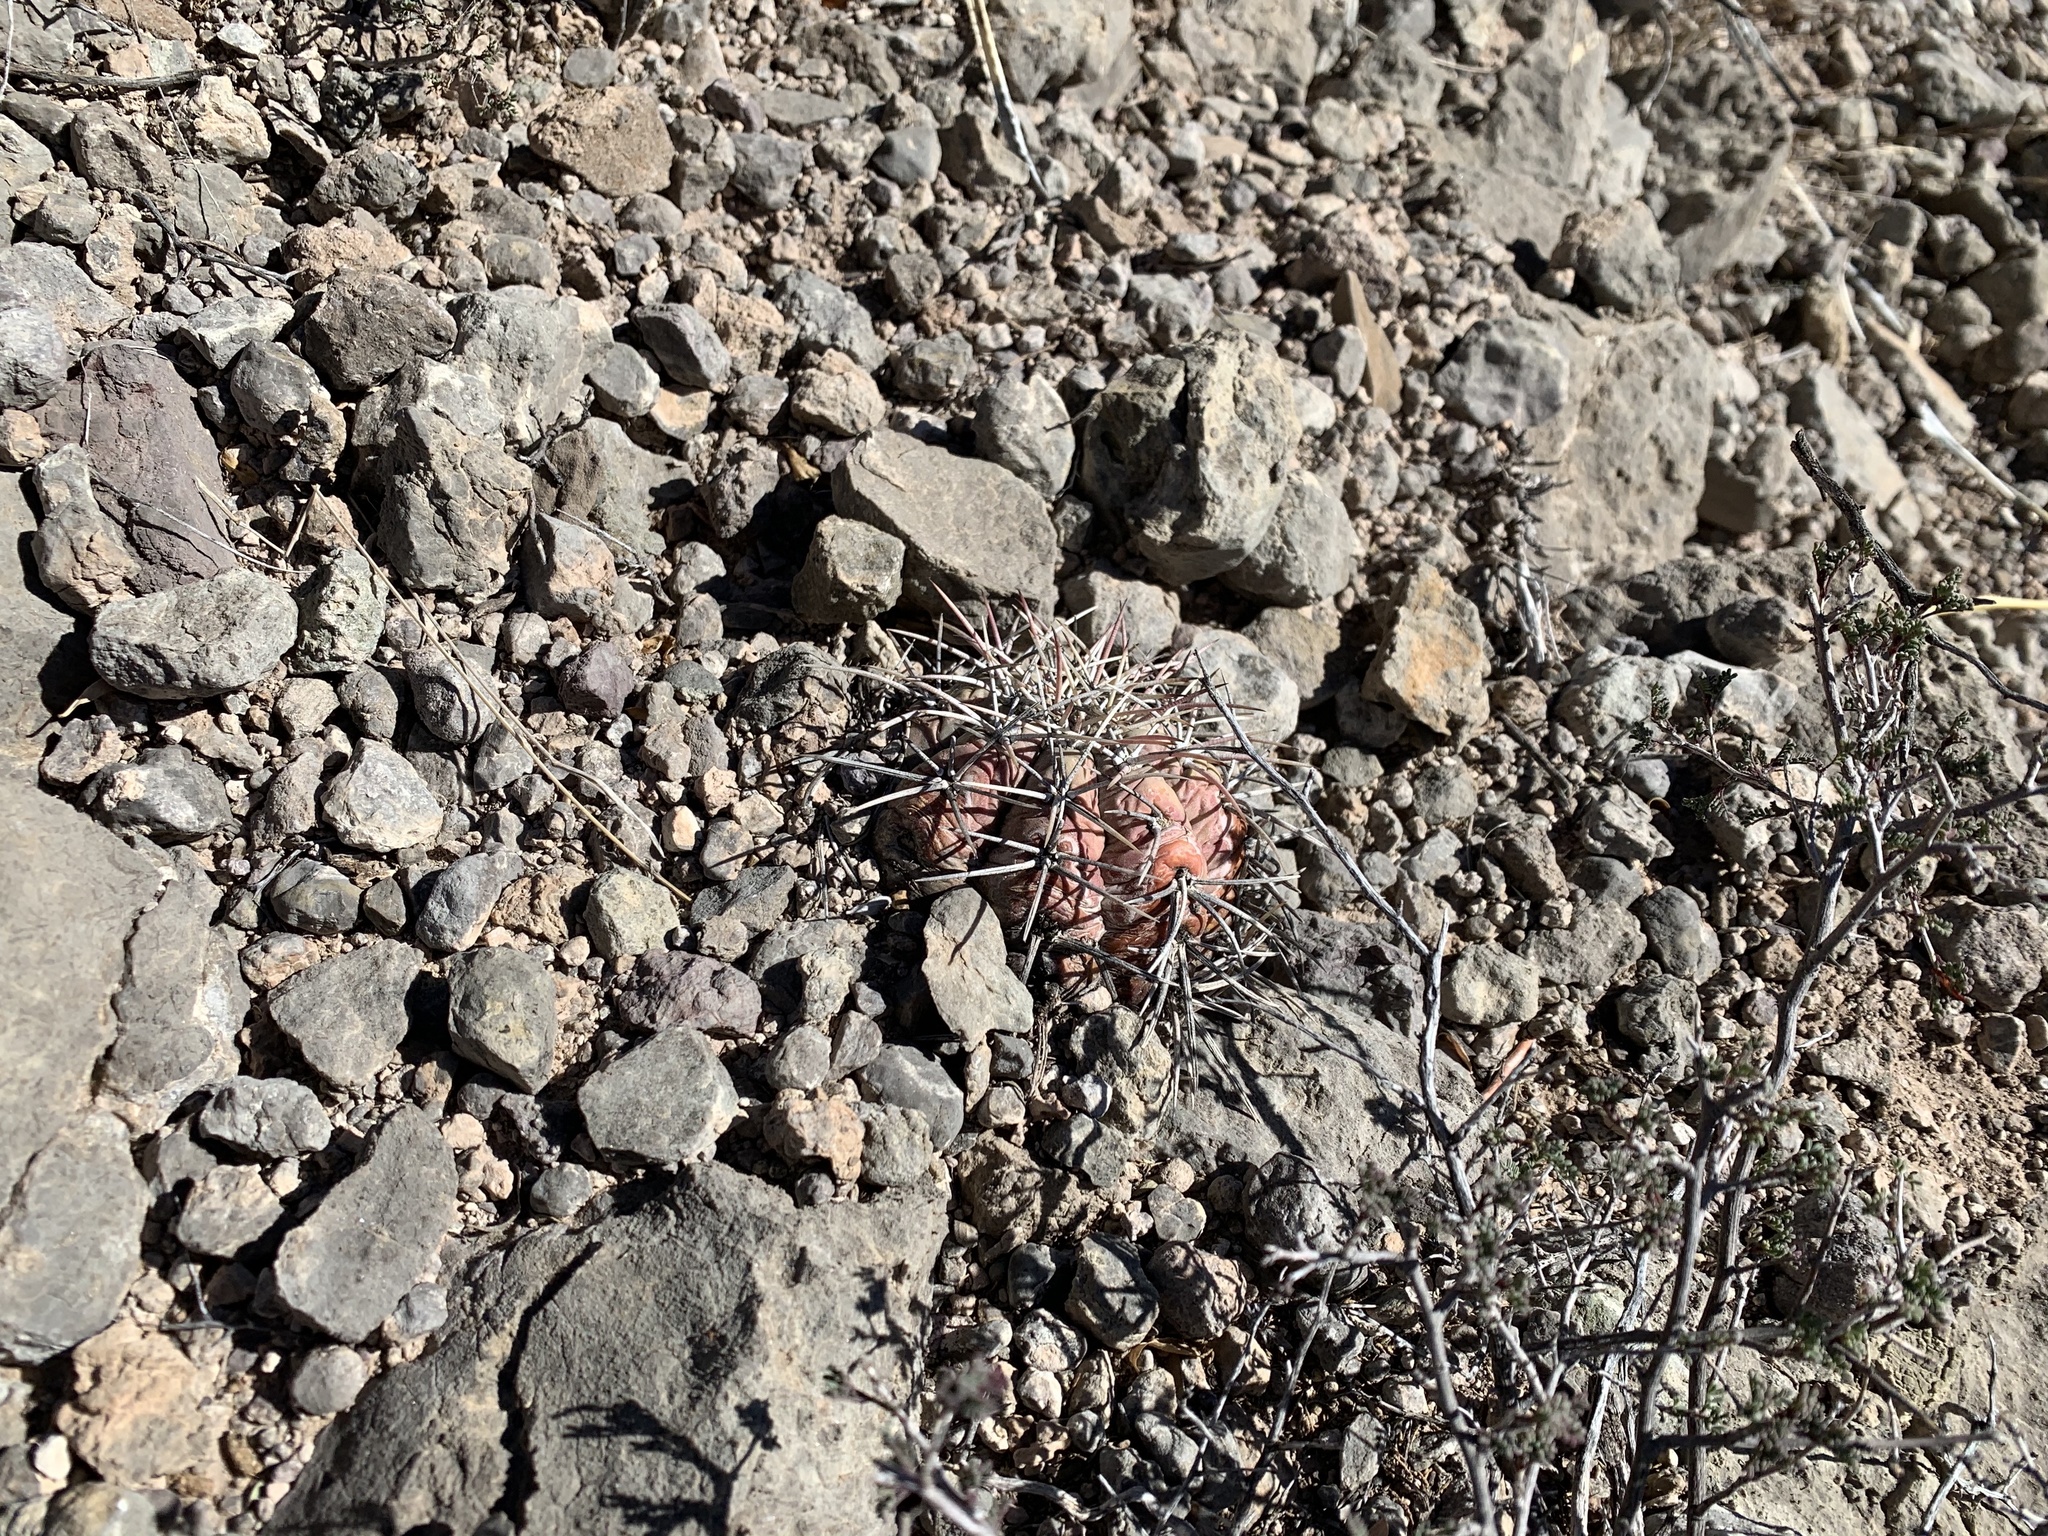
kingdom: Plantae
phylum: Tracheophyta
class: Magnoliopsida
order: Caryophyllales
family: Cactaceae
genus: Echinocactus
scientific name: Echinocactus horizonthalonius
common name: Devilshead
